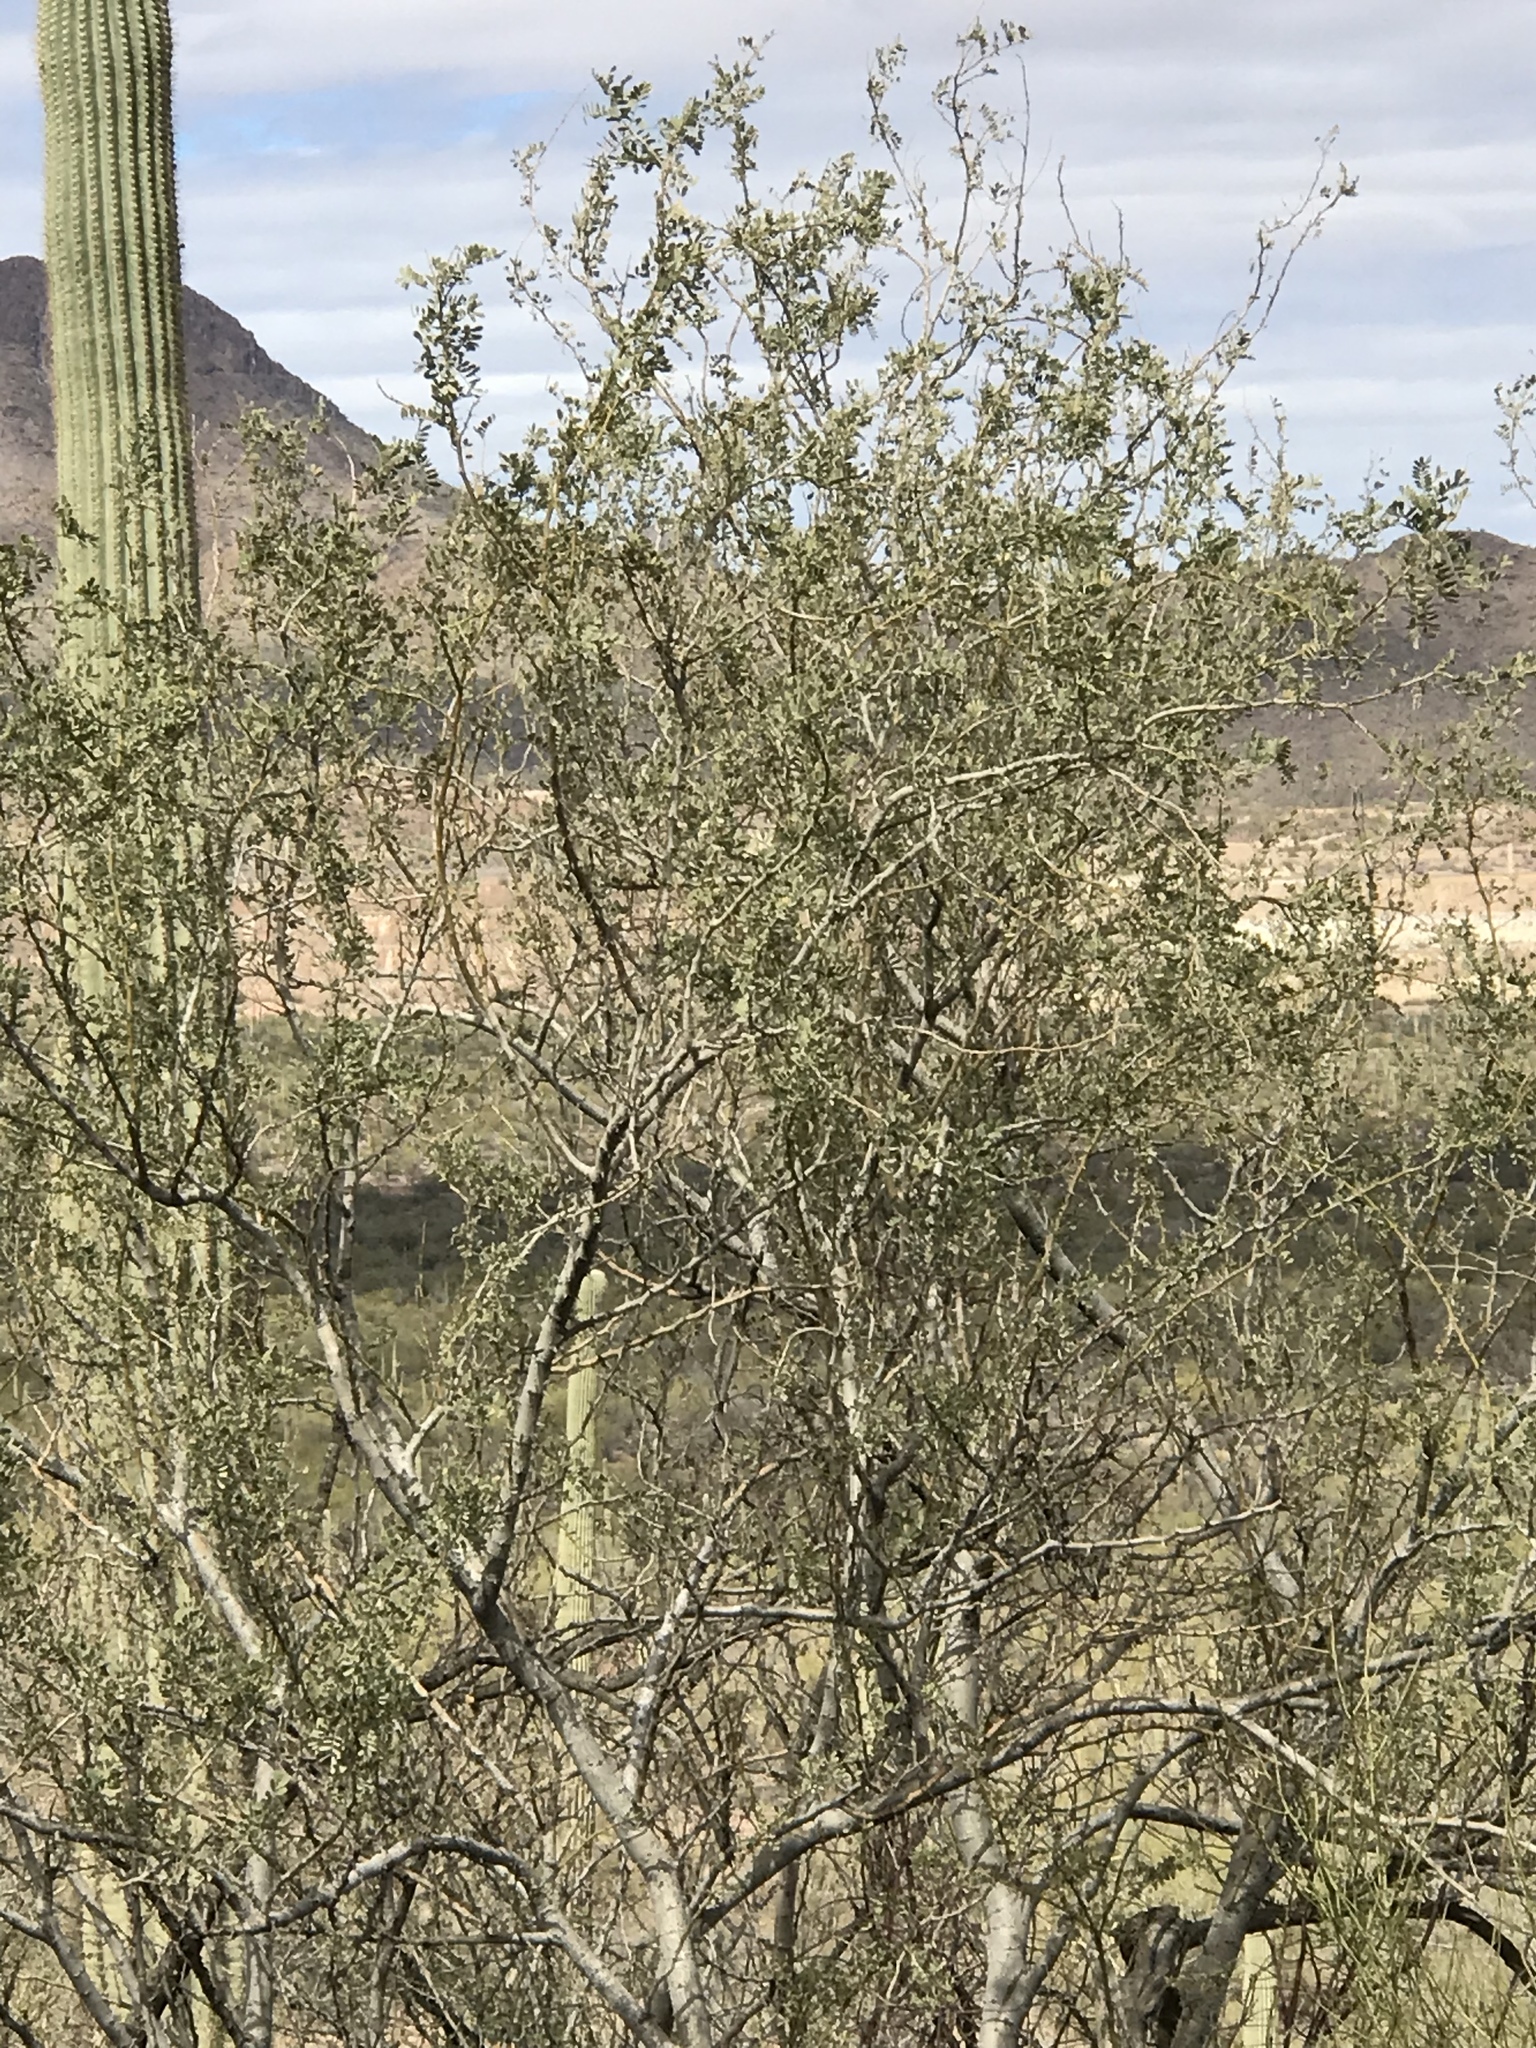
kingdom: Plantae
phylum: Tracheophyta
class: Magnoliopsida
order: Fabales
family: Fabaceae
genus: Olneya
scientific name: Olneya tesota
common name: Desert ironwood
